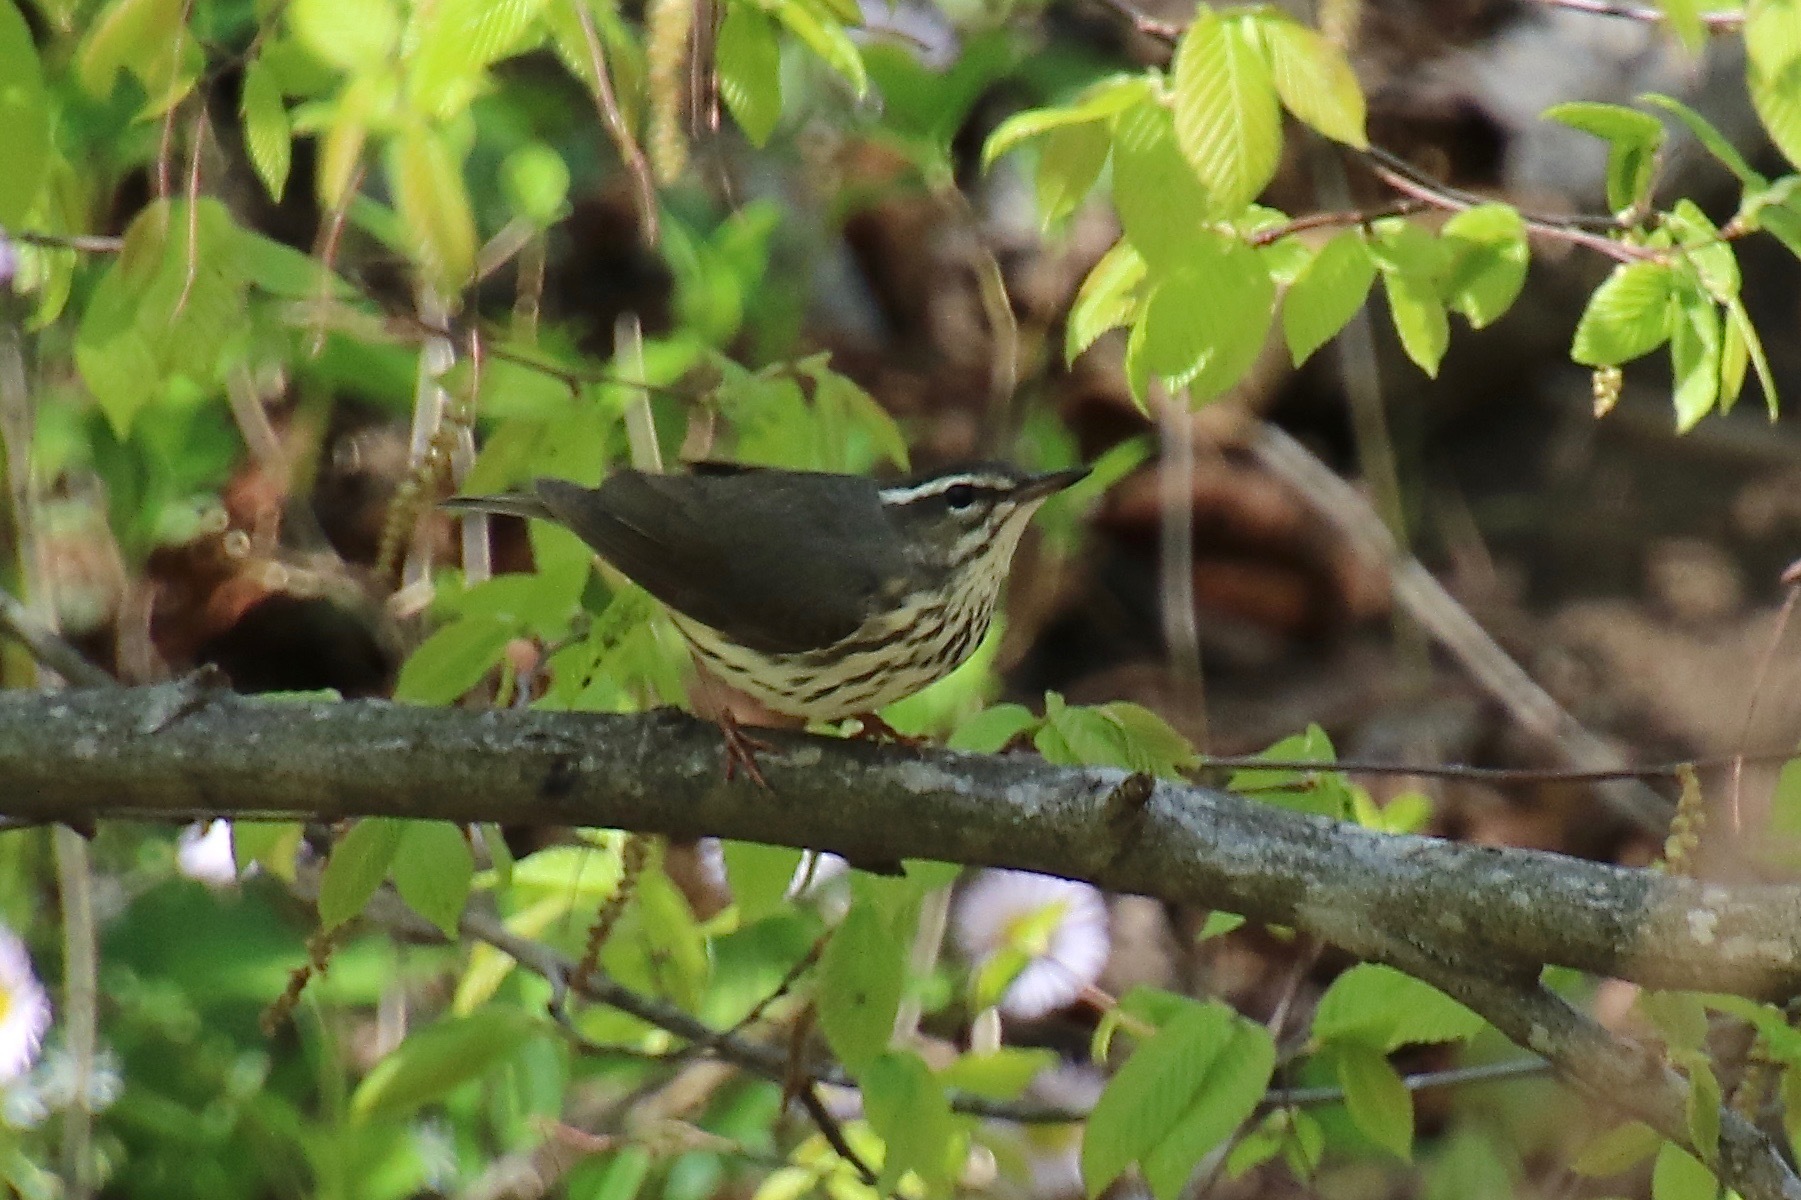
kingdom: Animalia
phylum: Chordata
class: Aves
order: Passeriformes
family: Parulidae
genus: Parkesia
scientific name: Parkesia motacilla
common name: Louisiana waterthrush
